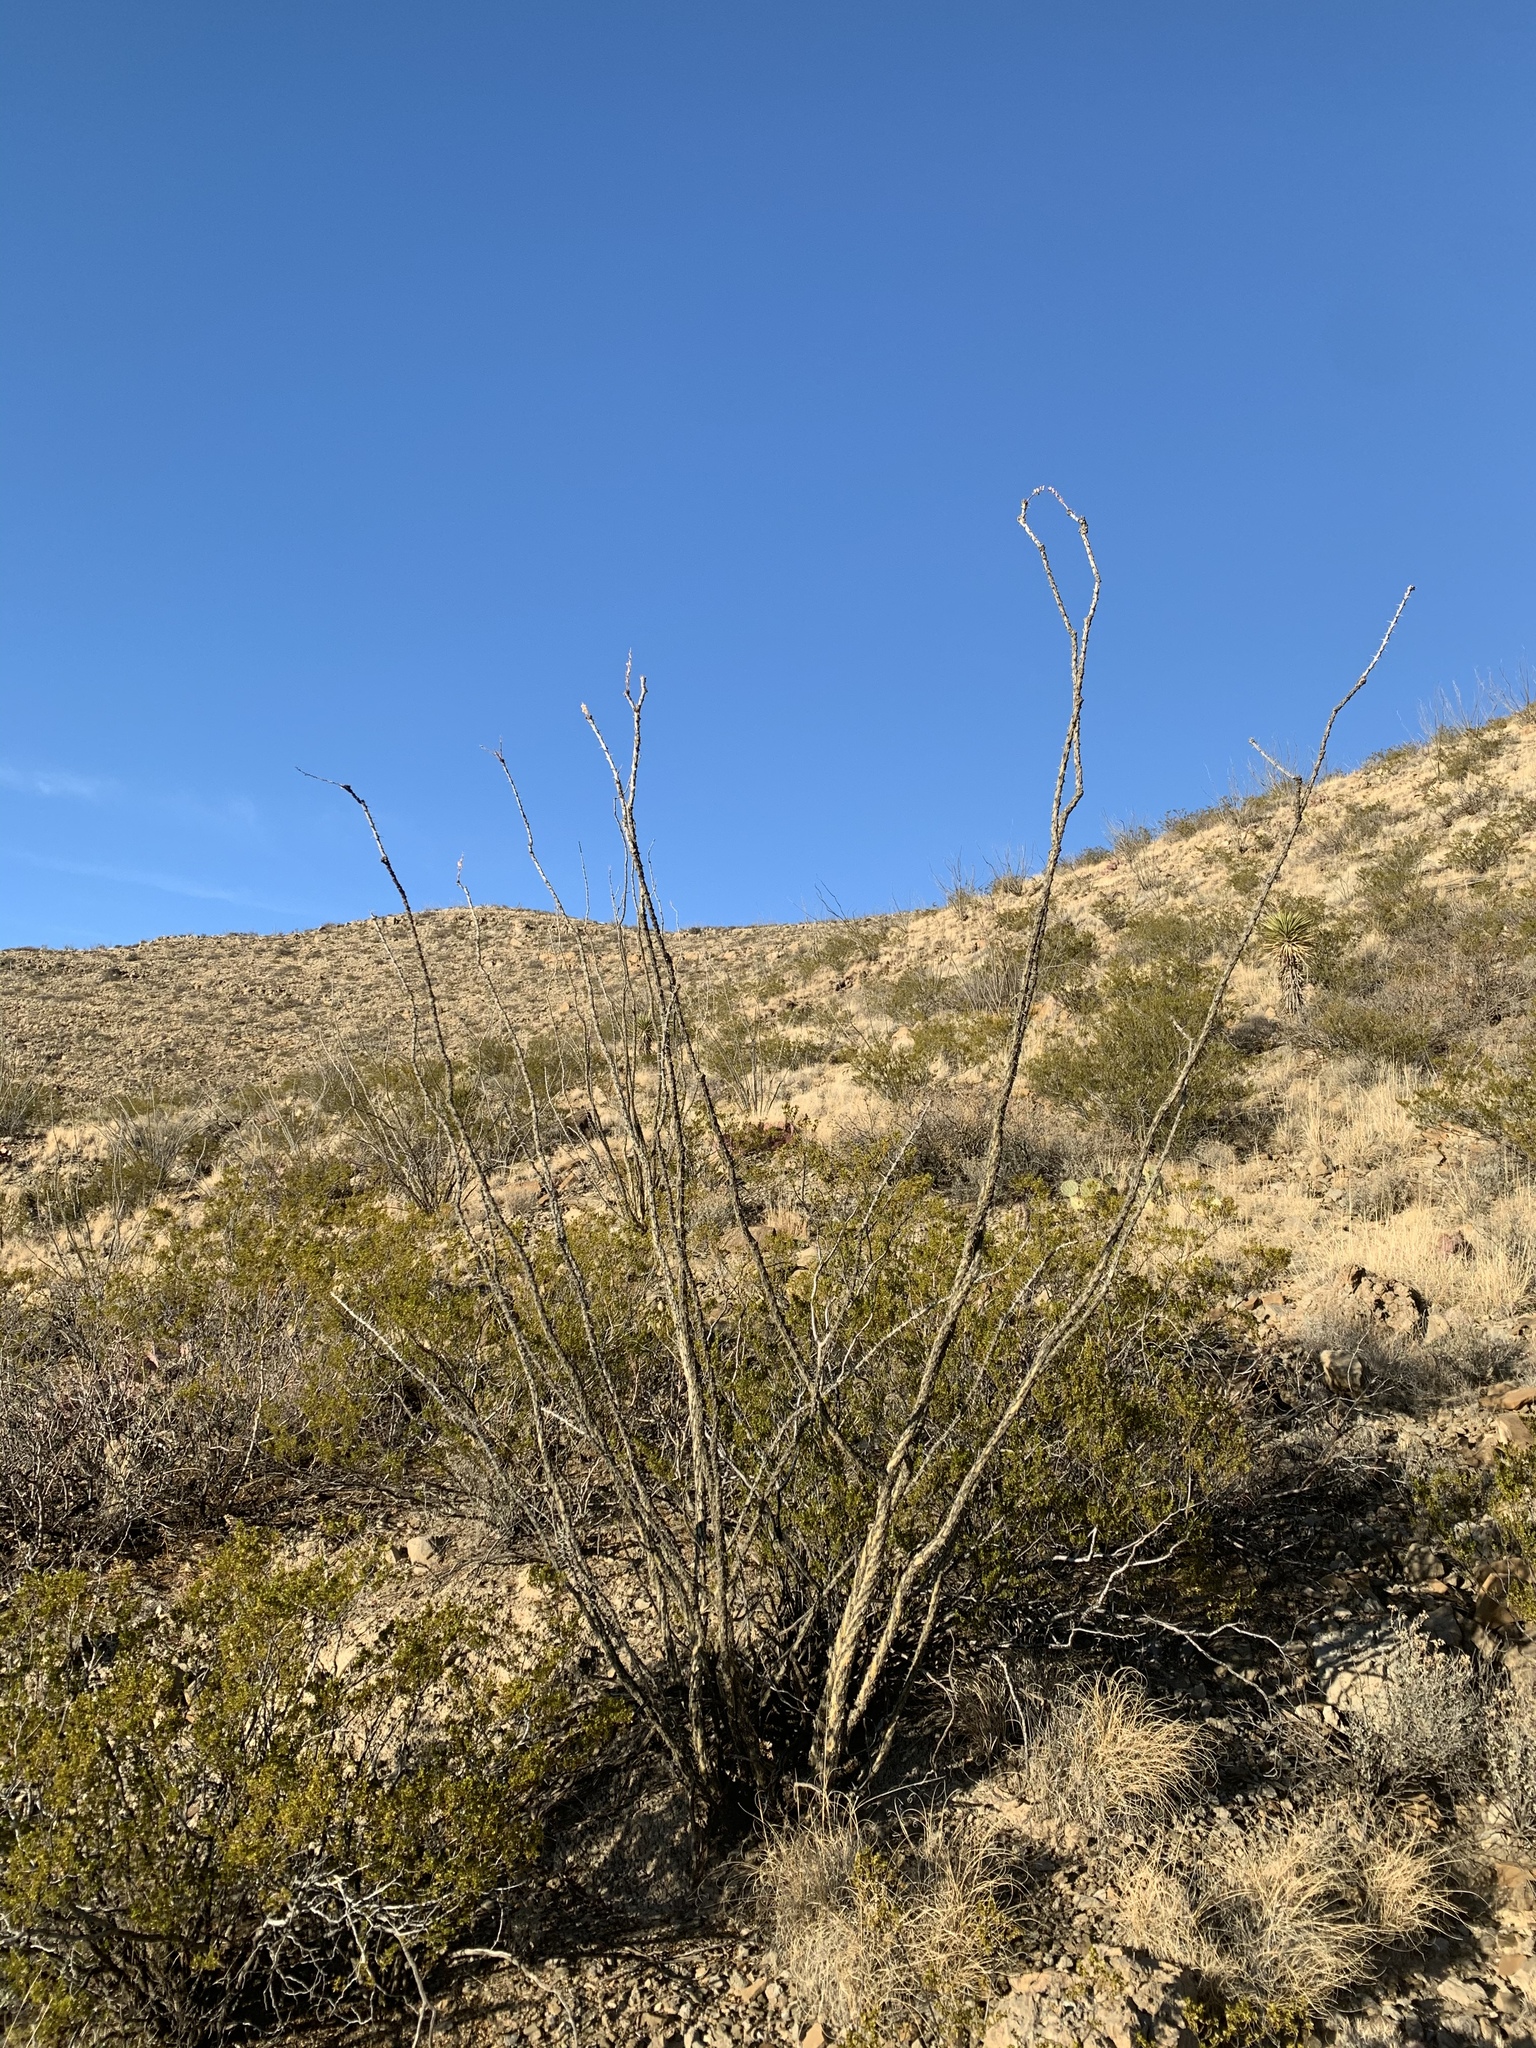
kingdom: Plantae
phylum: Tracheophyta
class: Magnoliopsida
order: Ericales
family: Fouquieriaceae
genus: Fouquieria
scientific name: Fouquieria splendens
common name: Vine-cactus
